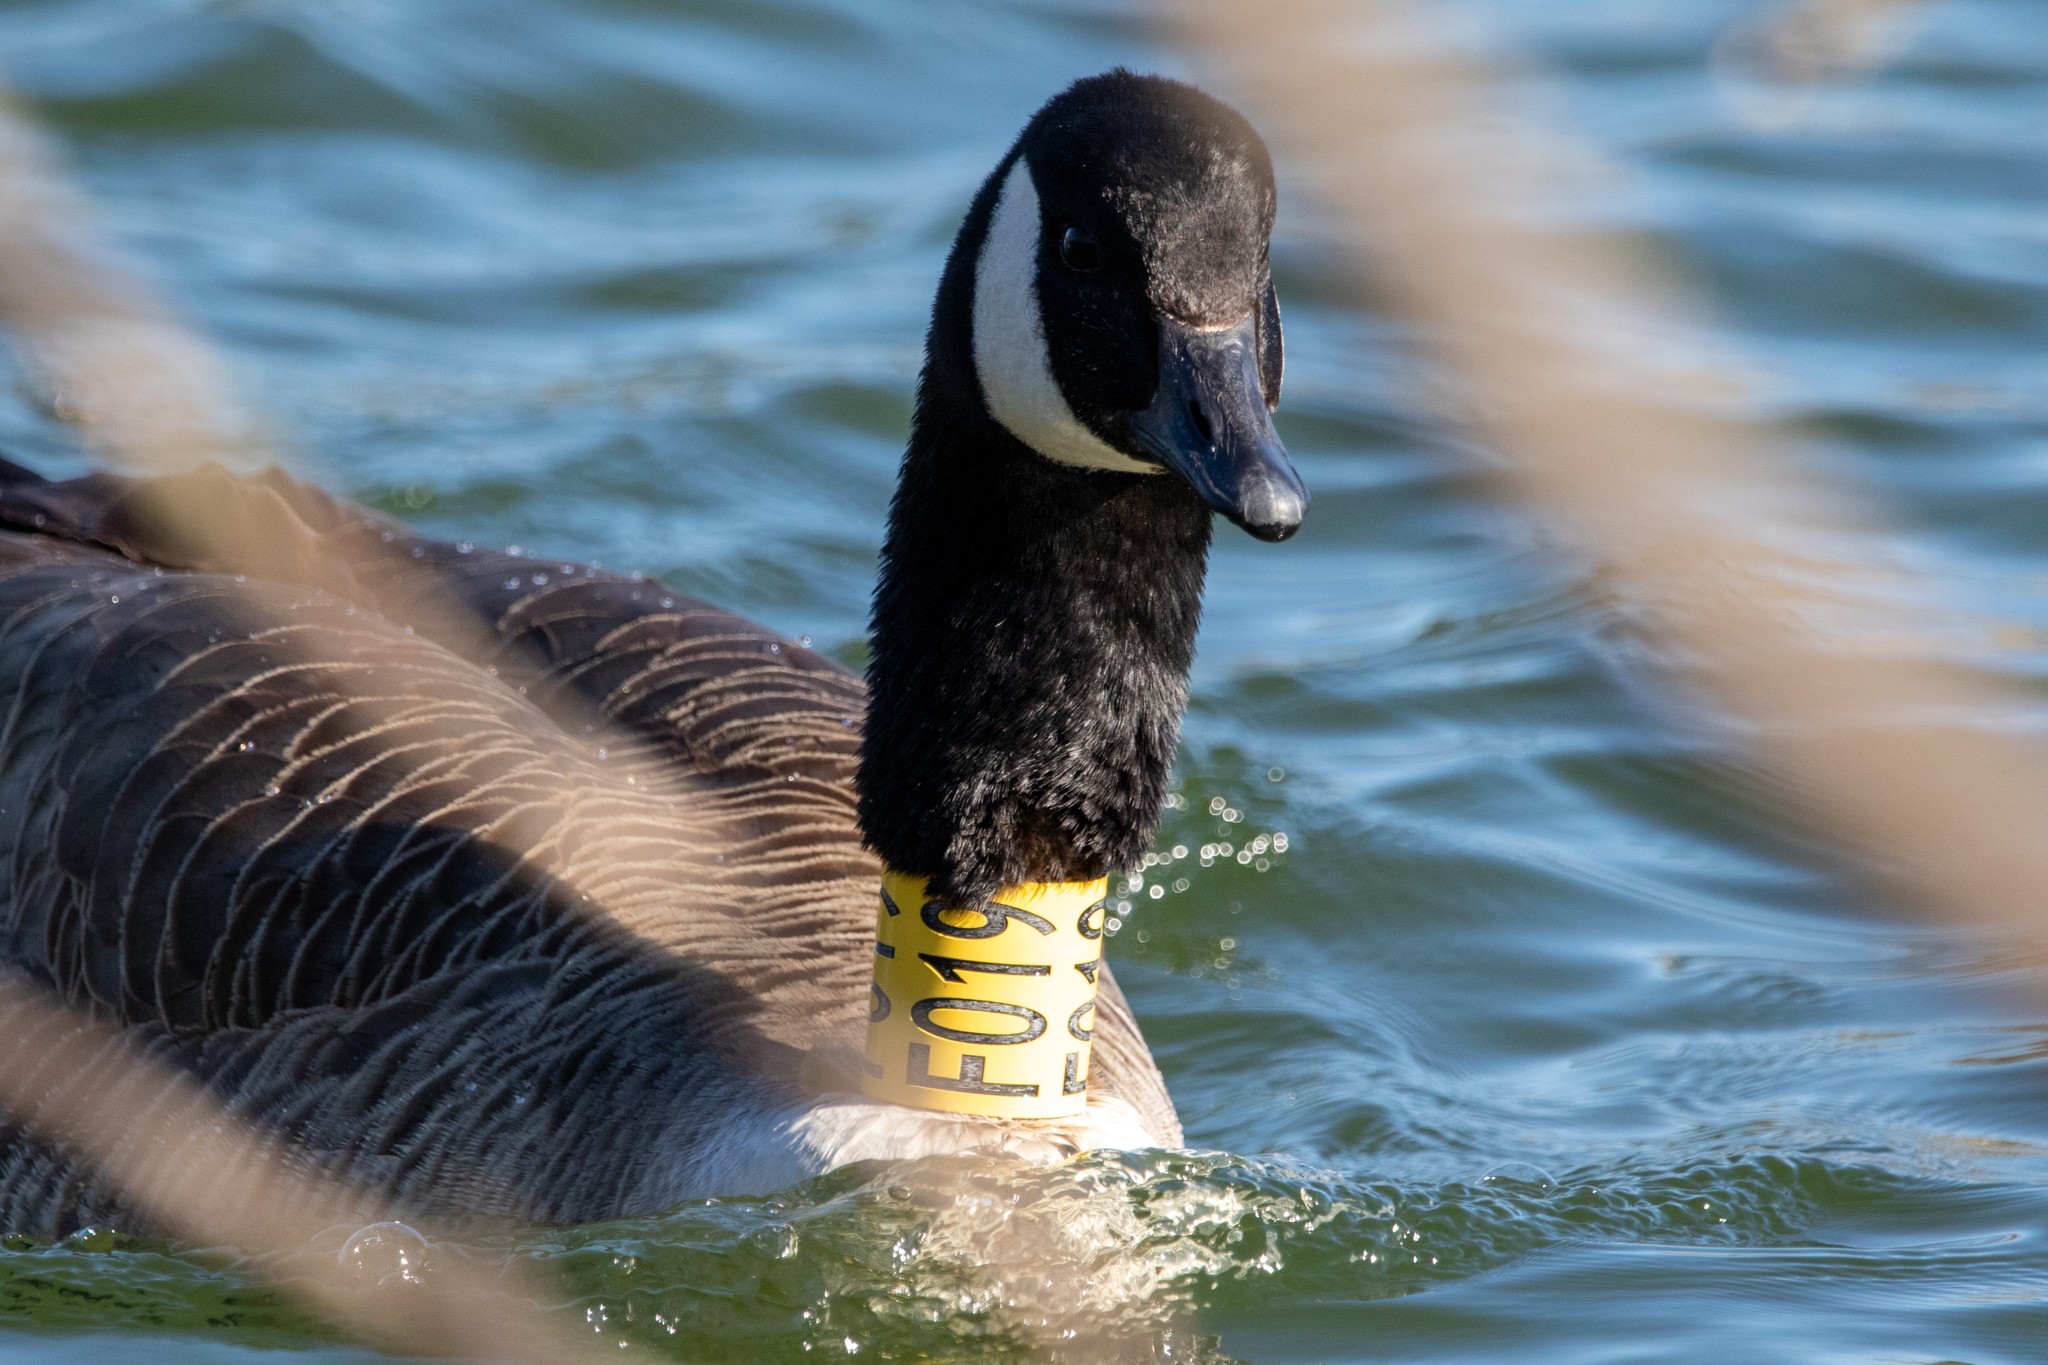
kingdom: Animalia
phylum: Chordata
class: Aves
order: Anseriformes
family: Anatidae
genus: Branta
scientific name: Branta canadensis
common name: Canada goose
